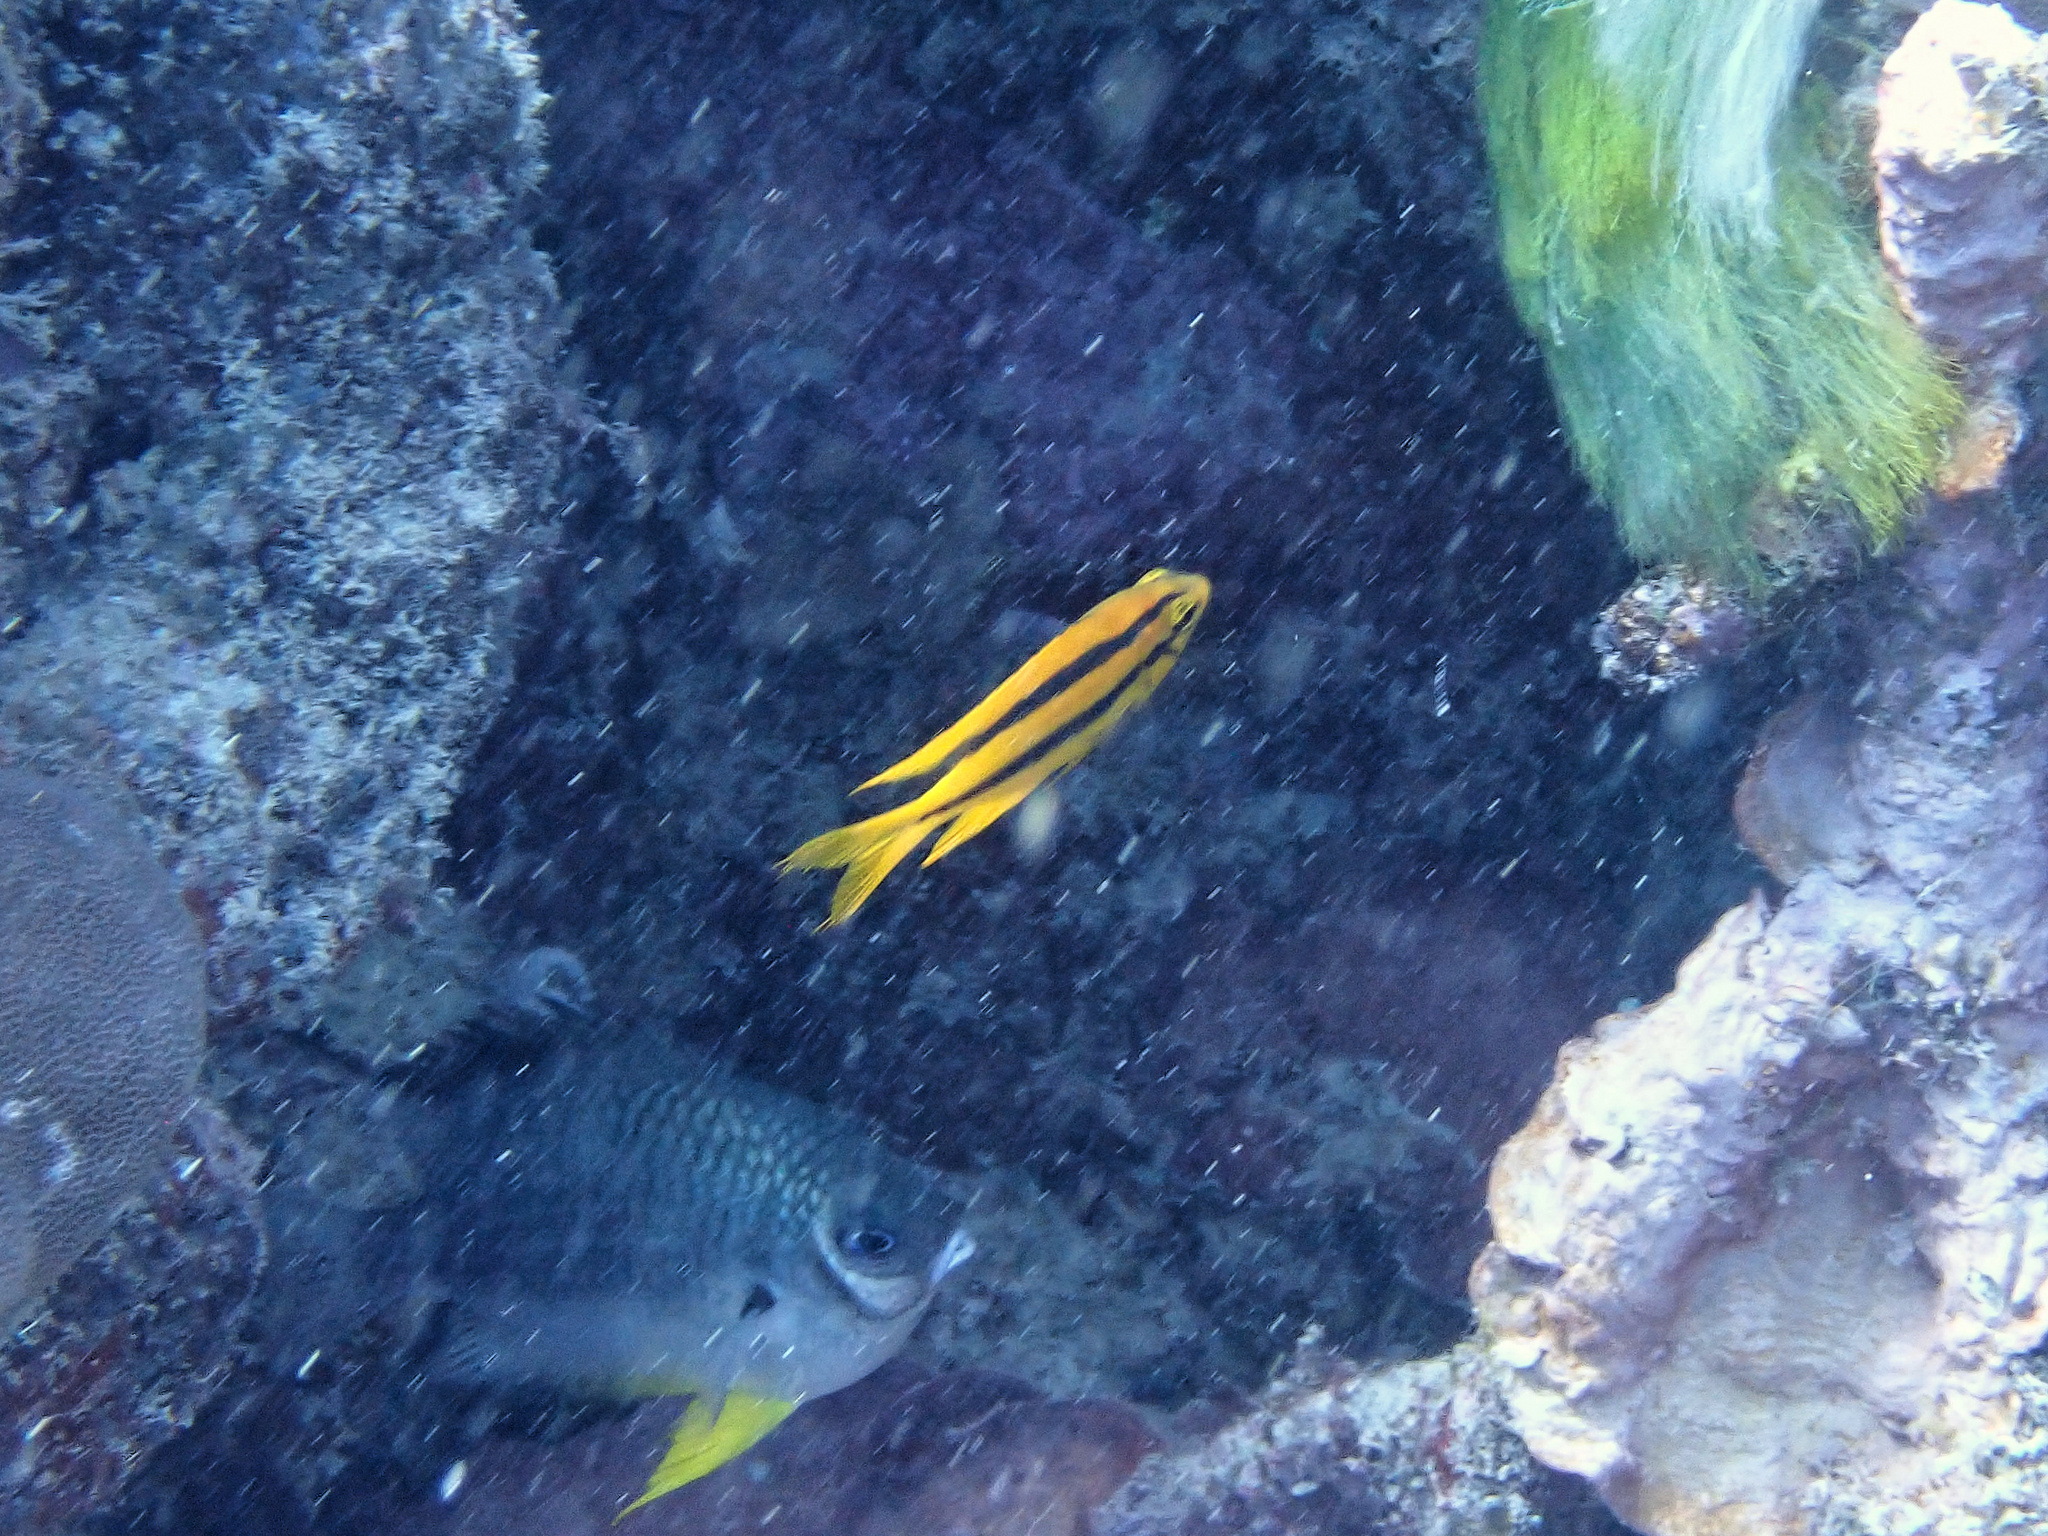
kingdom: Animalia
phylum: Chordata
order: Perciformes
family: Pomacentridae
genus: Neoglyphidodon
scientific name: Neoglyphidodon nigroris
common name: Behn's damsel
